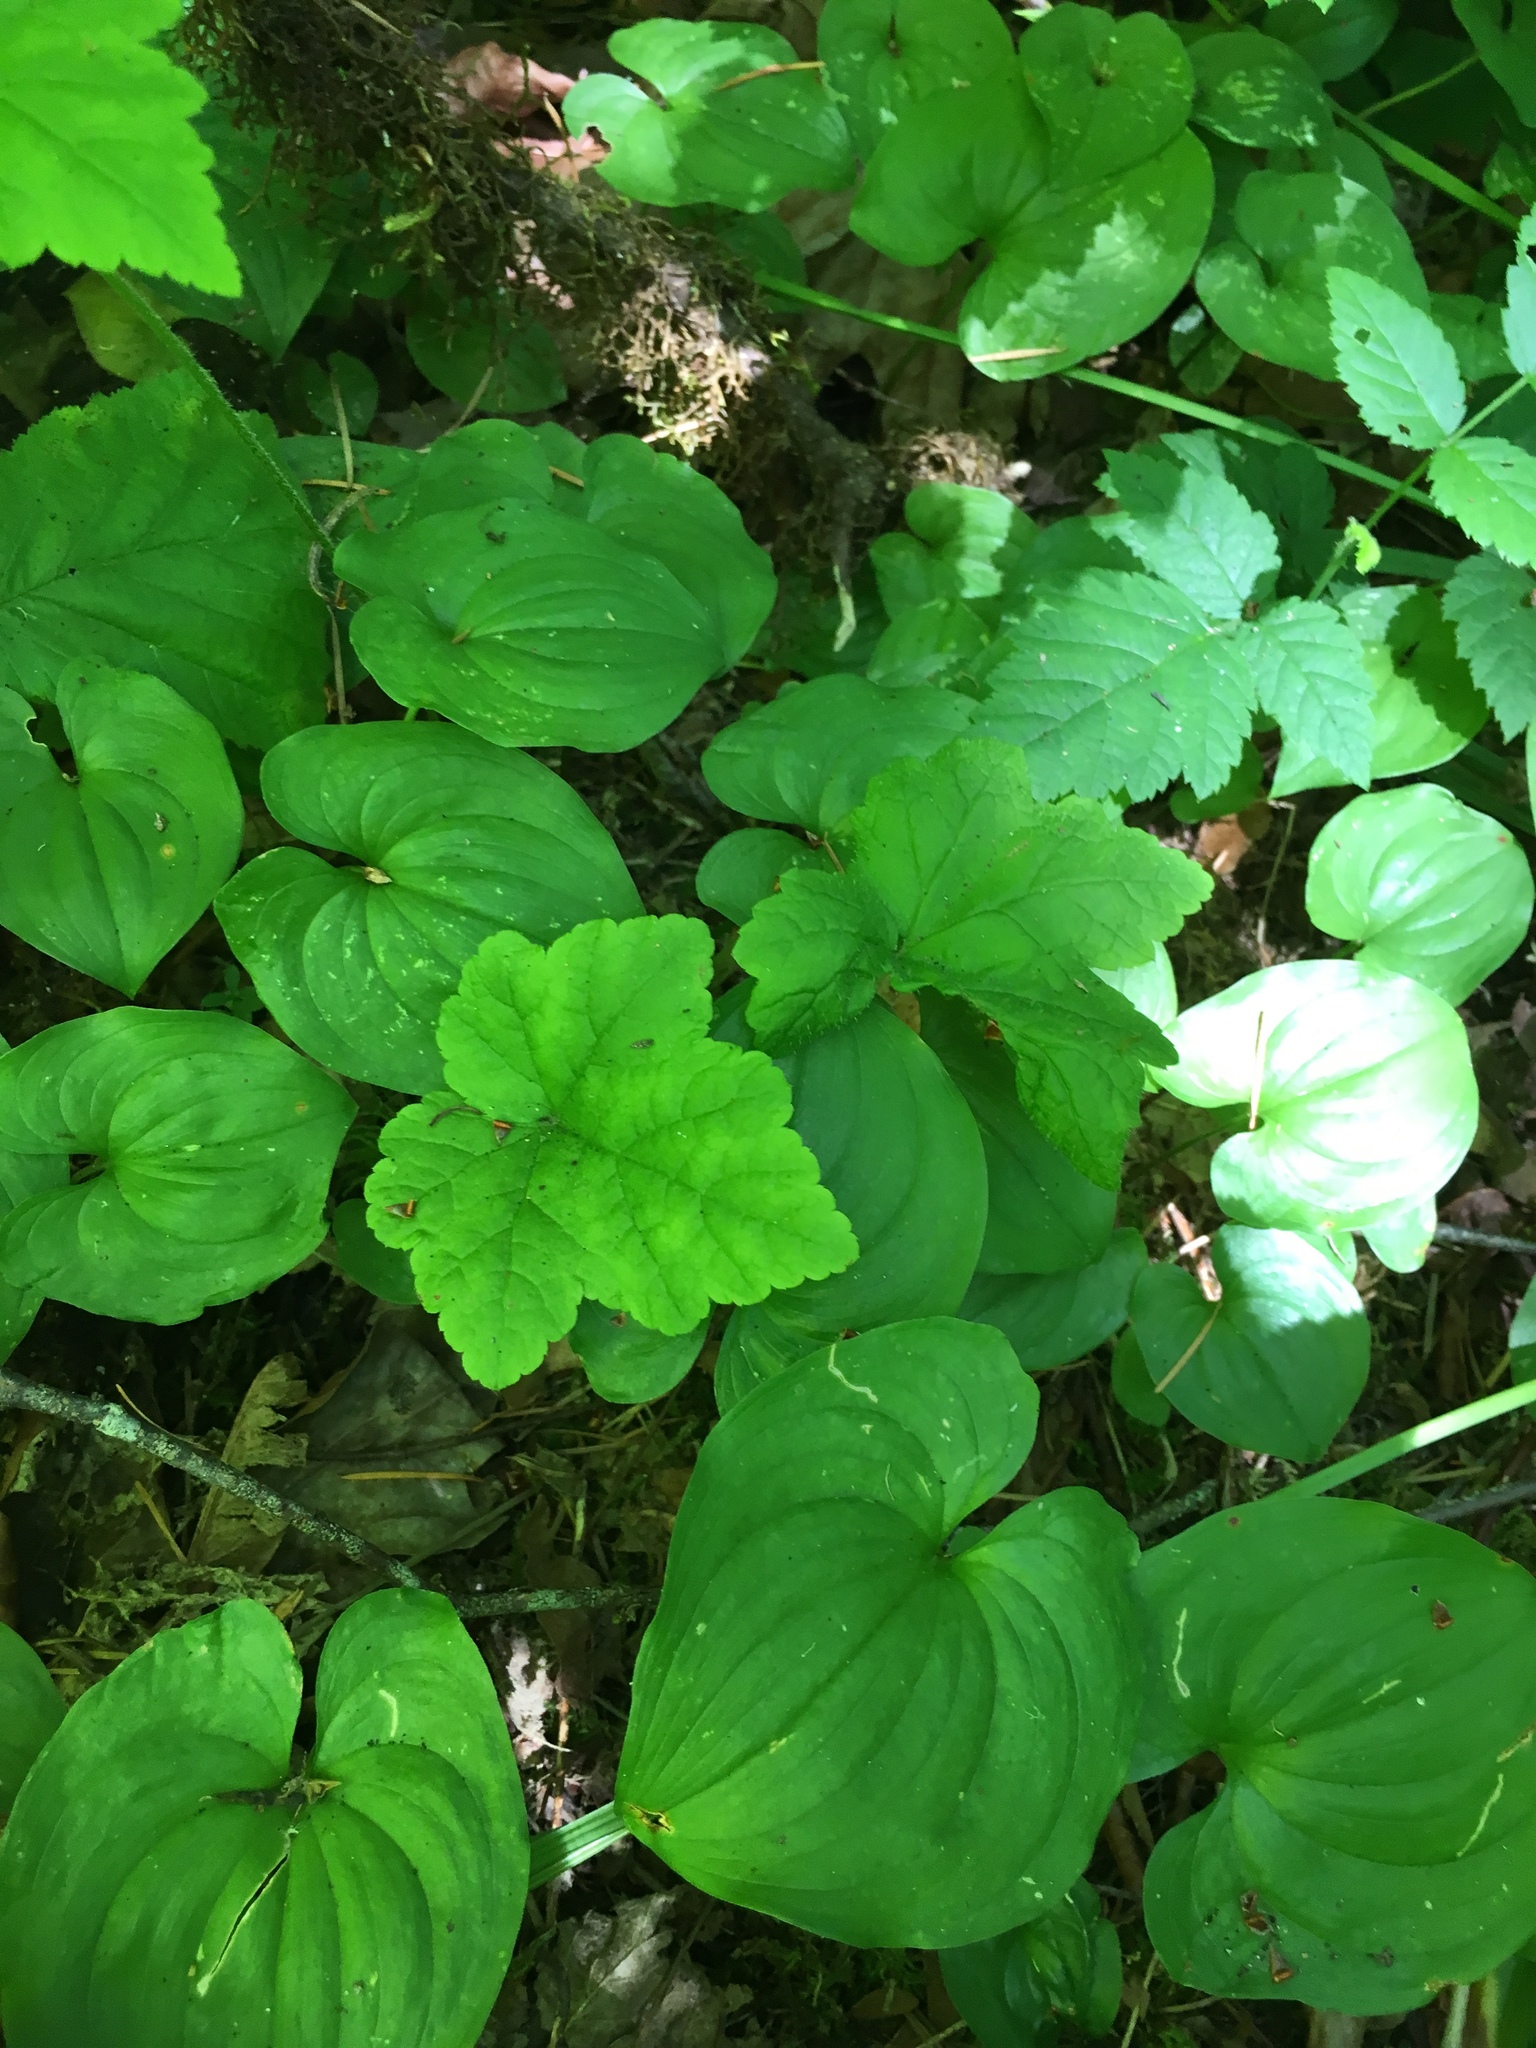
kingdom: Plantae
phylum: Tracheophyta
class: Magnoliopsida
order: Saxifragales
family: Saxifragaceae
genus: Tiarella
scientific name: Tiarella trifoliata
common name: Sugar-scoop
